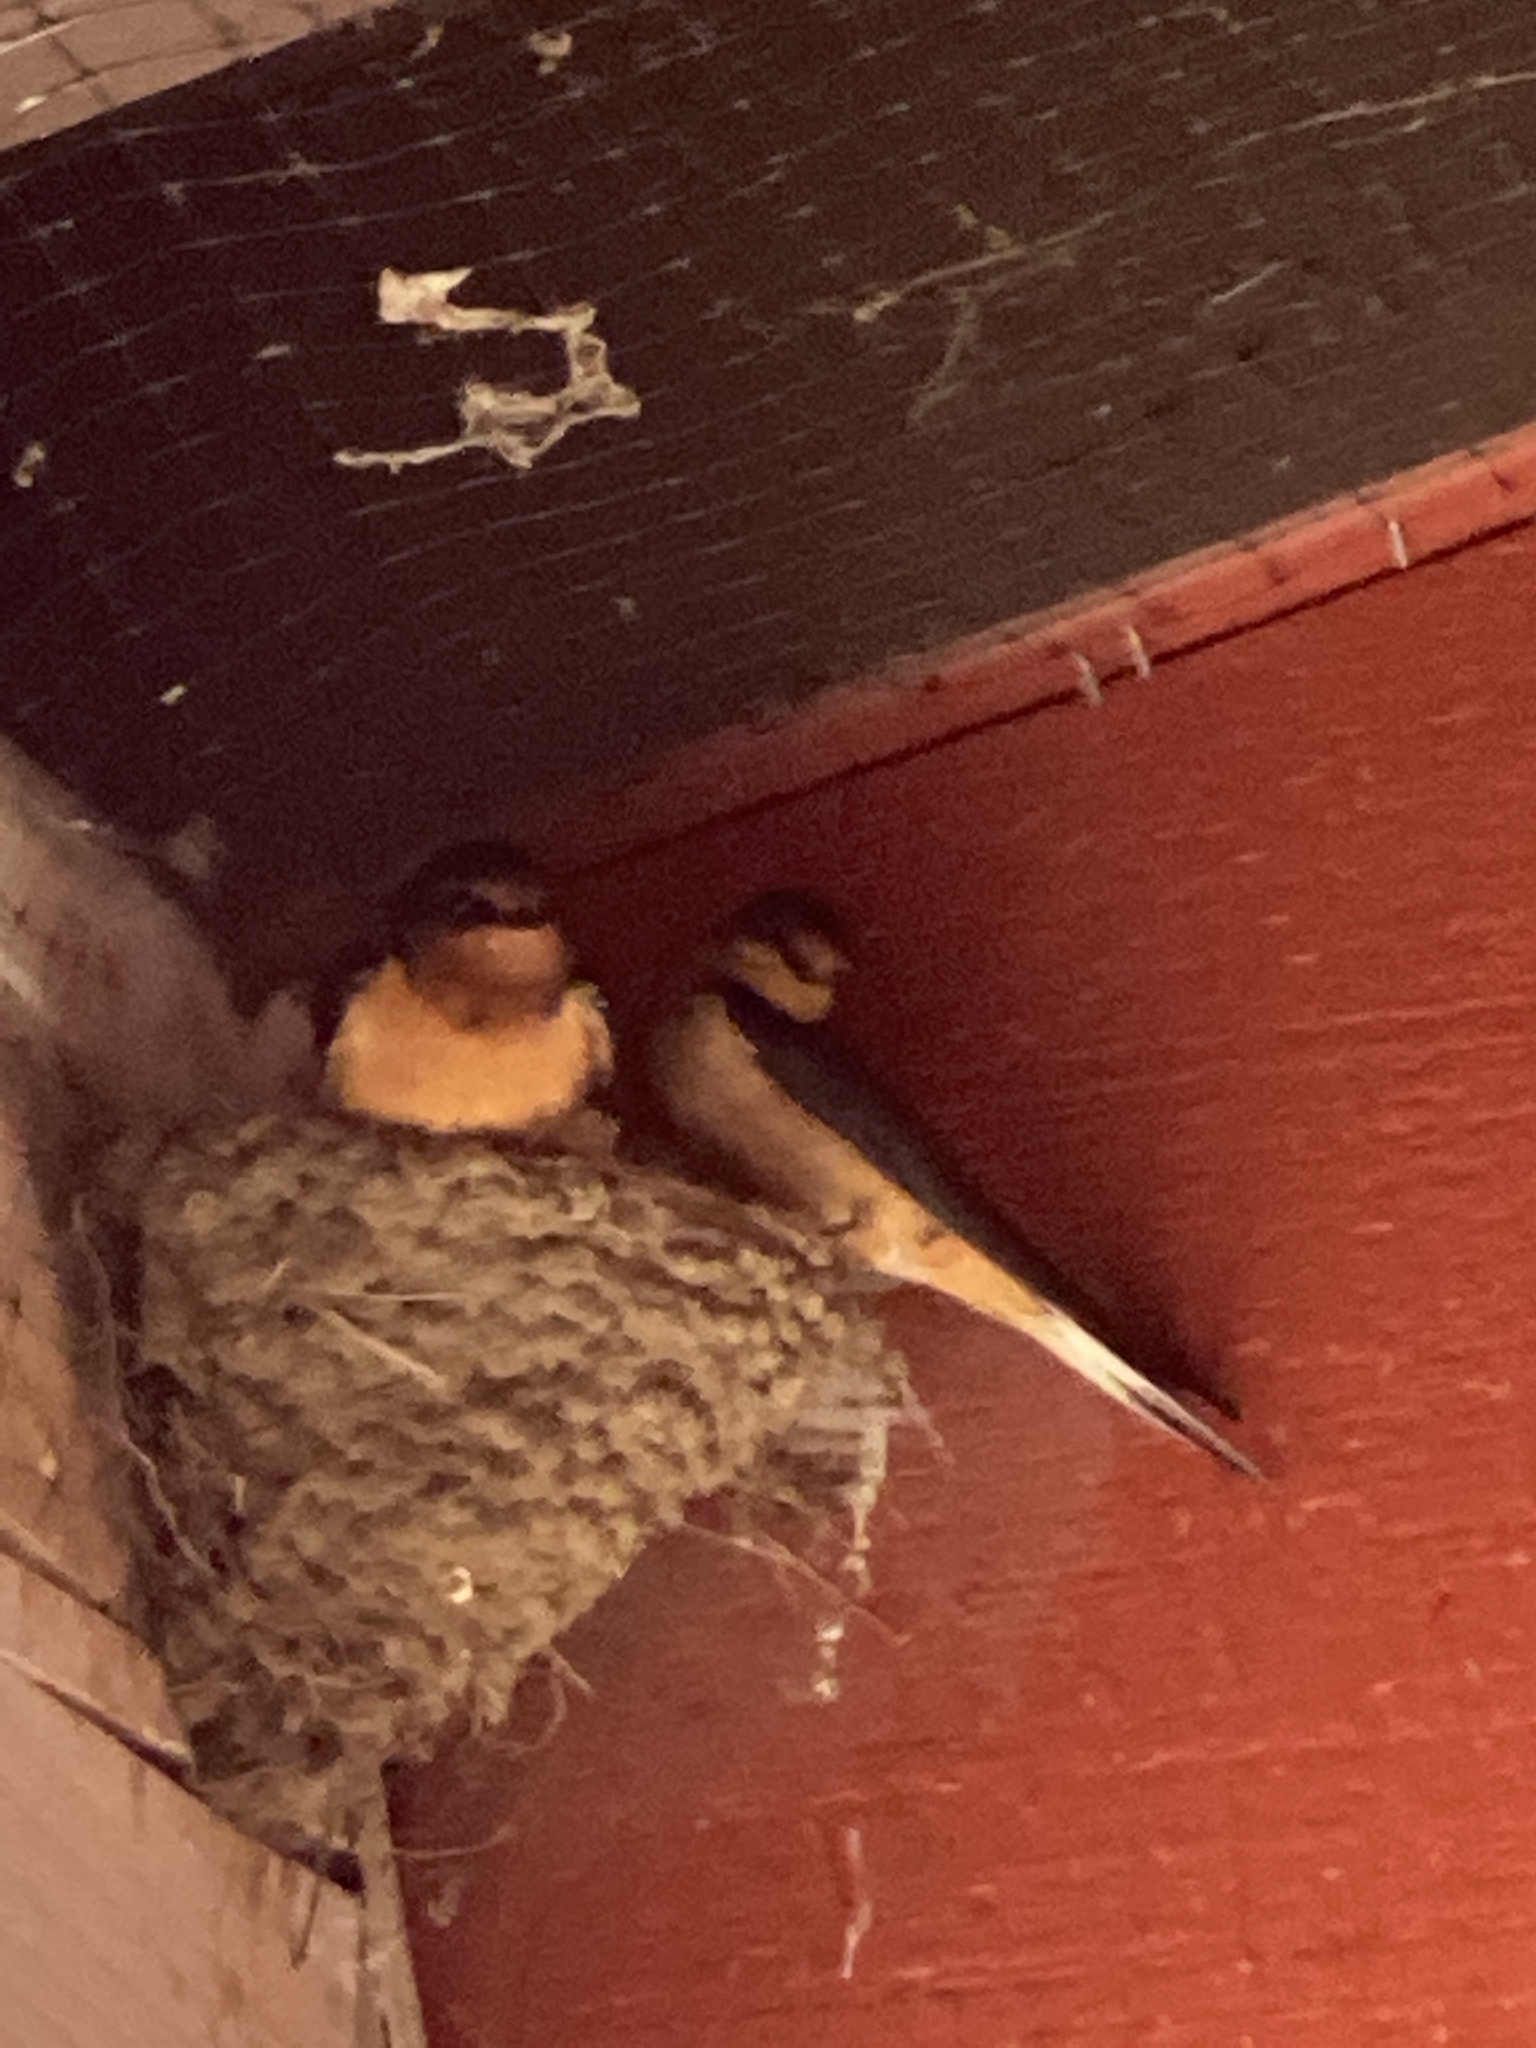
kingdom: Animalia
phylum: Chordata
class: Aves
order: Passeriformes
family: Hirundinidae
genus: Hirundo
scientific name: Hirundo rustica
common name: Barn swallow
